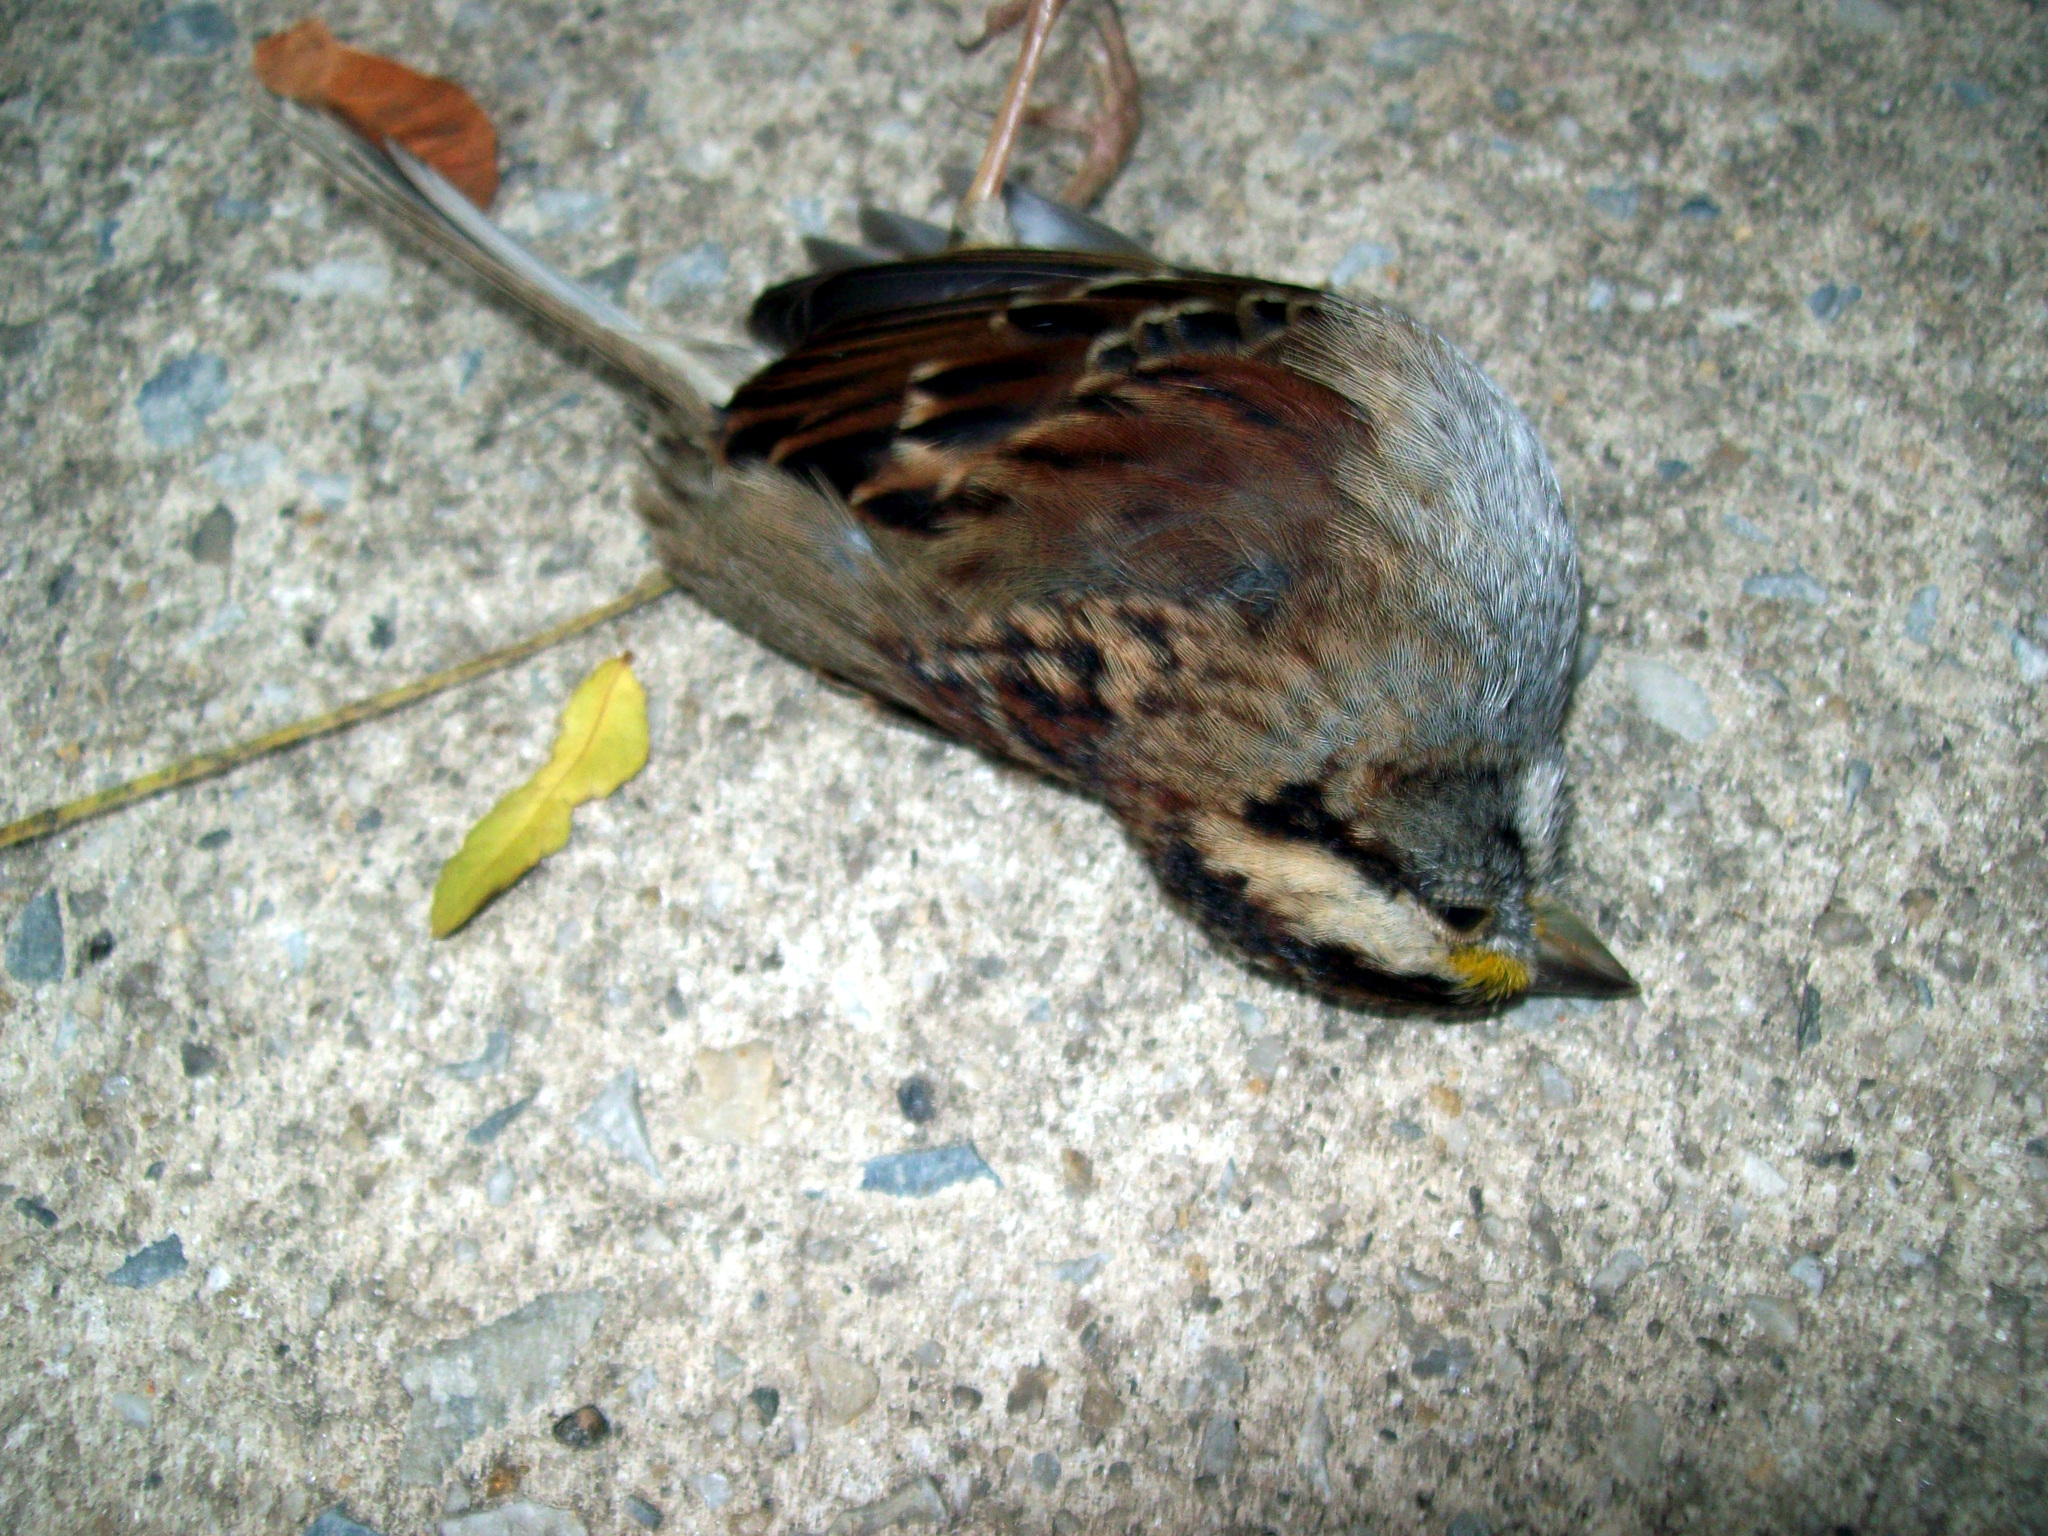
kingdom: Animalia
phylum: Chordata
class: Aves
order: Passeriformes
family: Passerellidae
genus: Zonotrichia
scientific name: Zonotrichia albicollis
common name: White-throated sparrow
